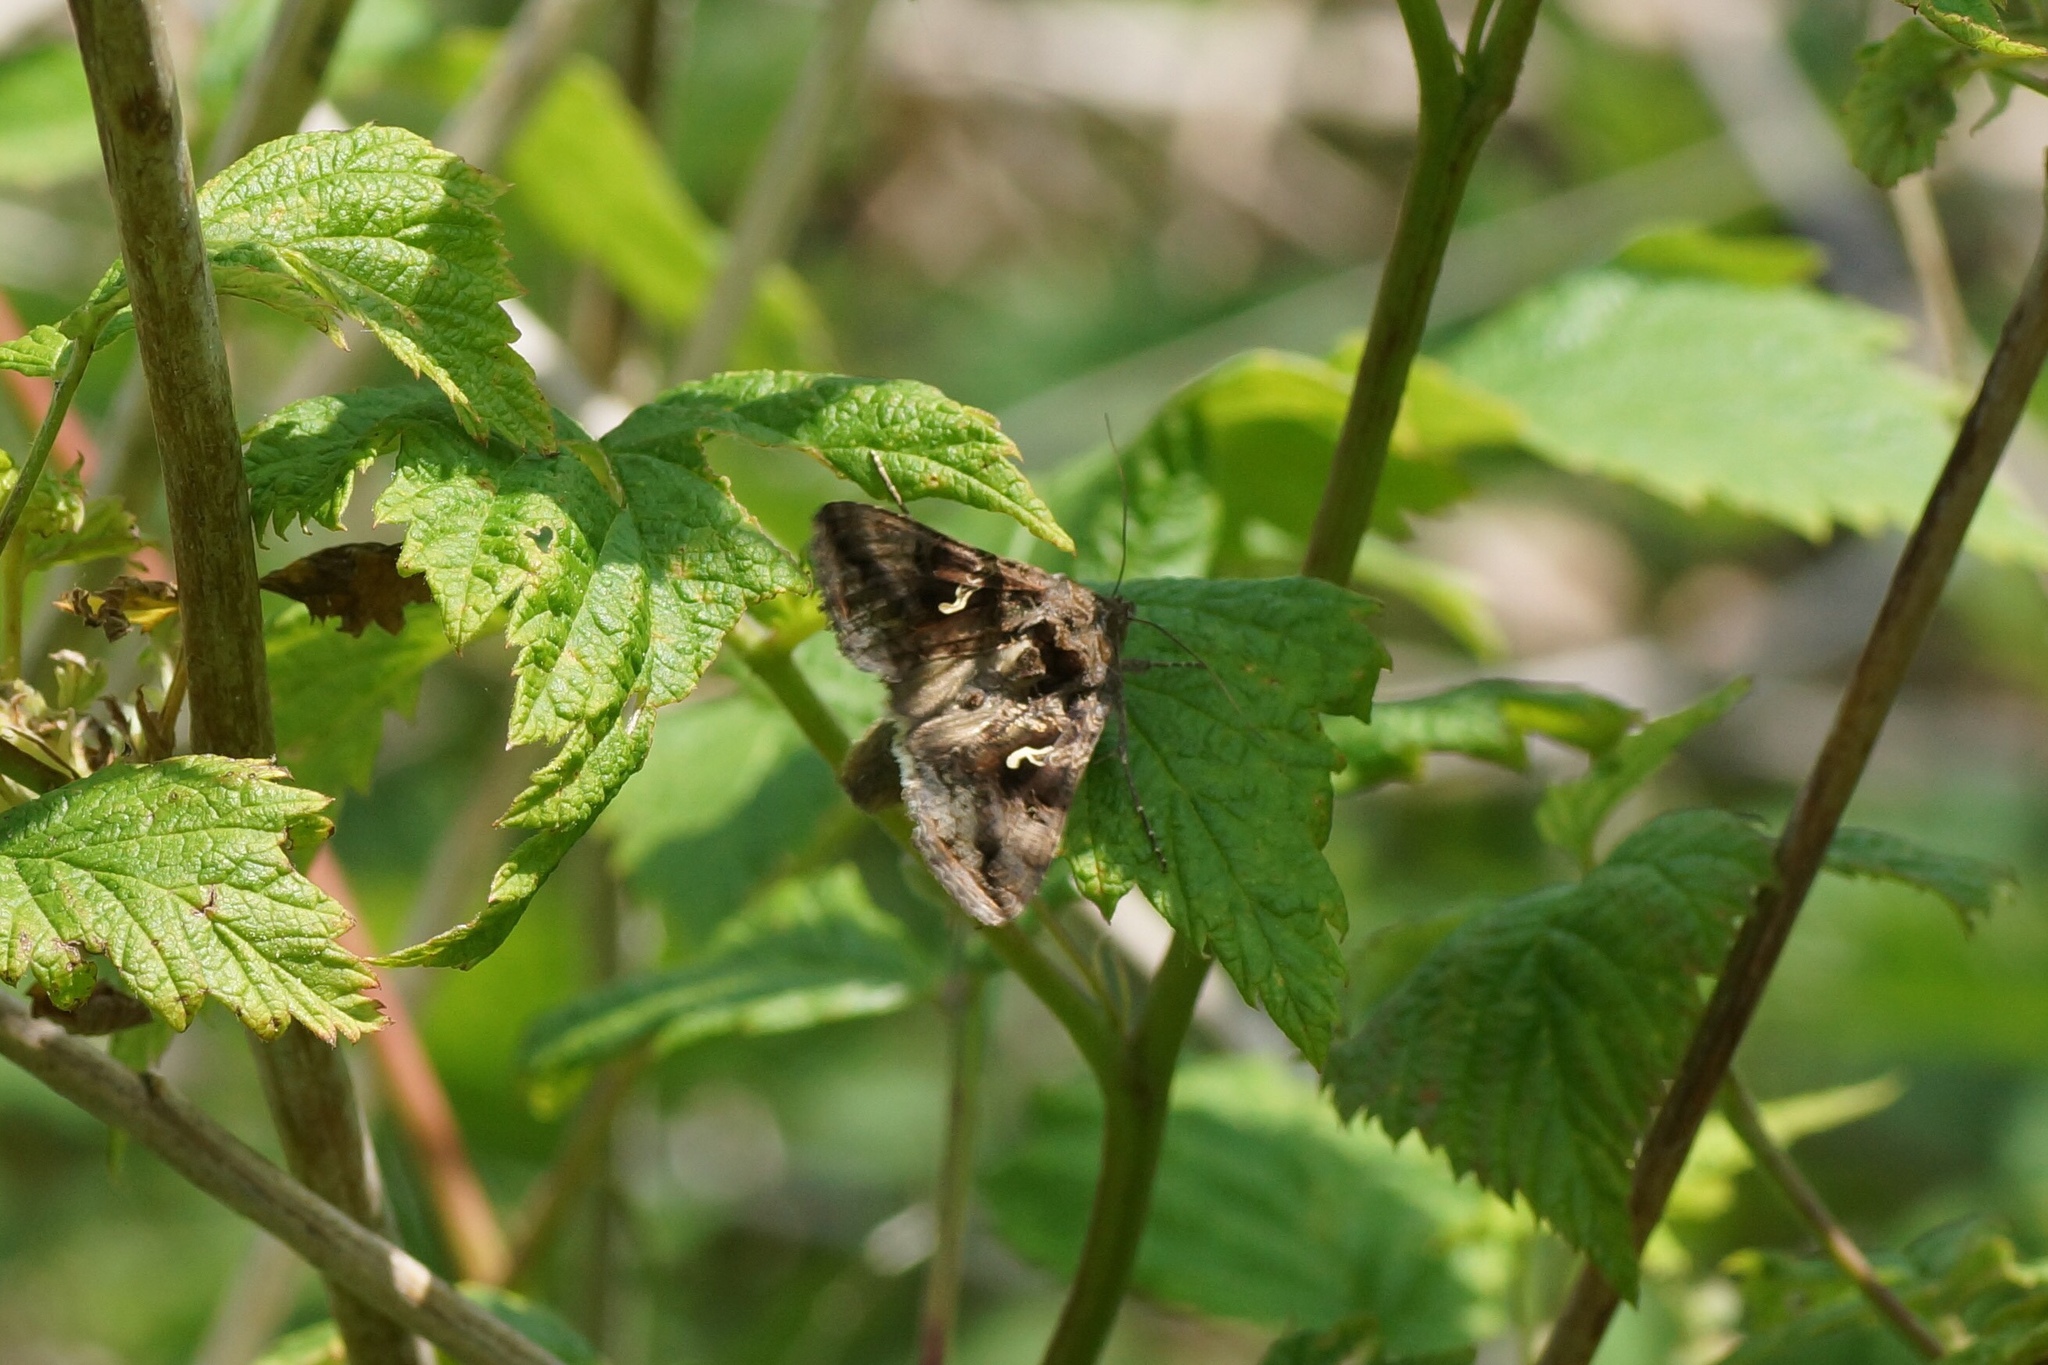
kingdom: Animalia
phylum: Arthropoda
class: Insecta
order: Lepidoptera
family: Noctuidae
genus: Autographa
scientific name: Autographa gamma
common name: Silver y
